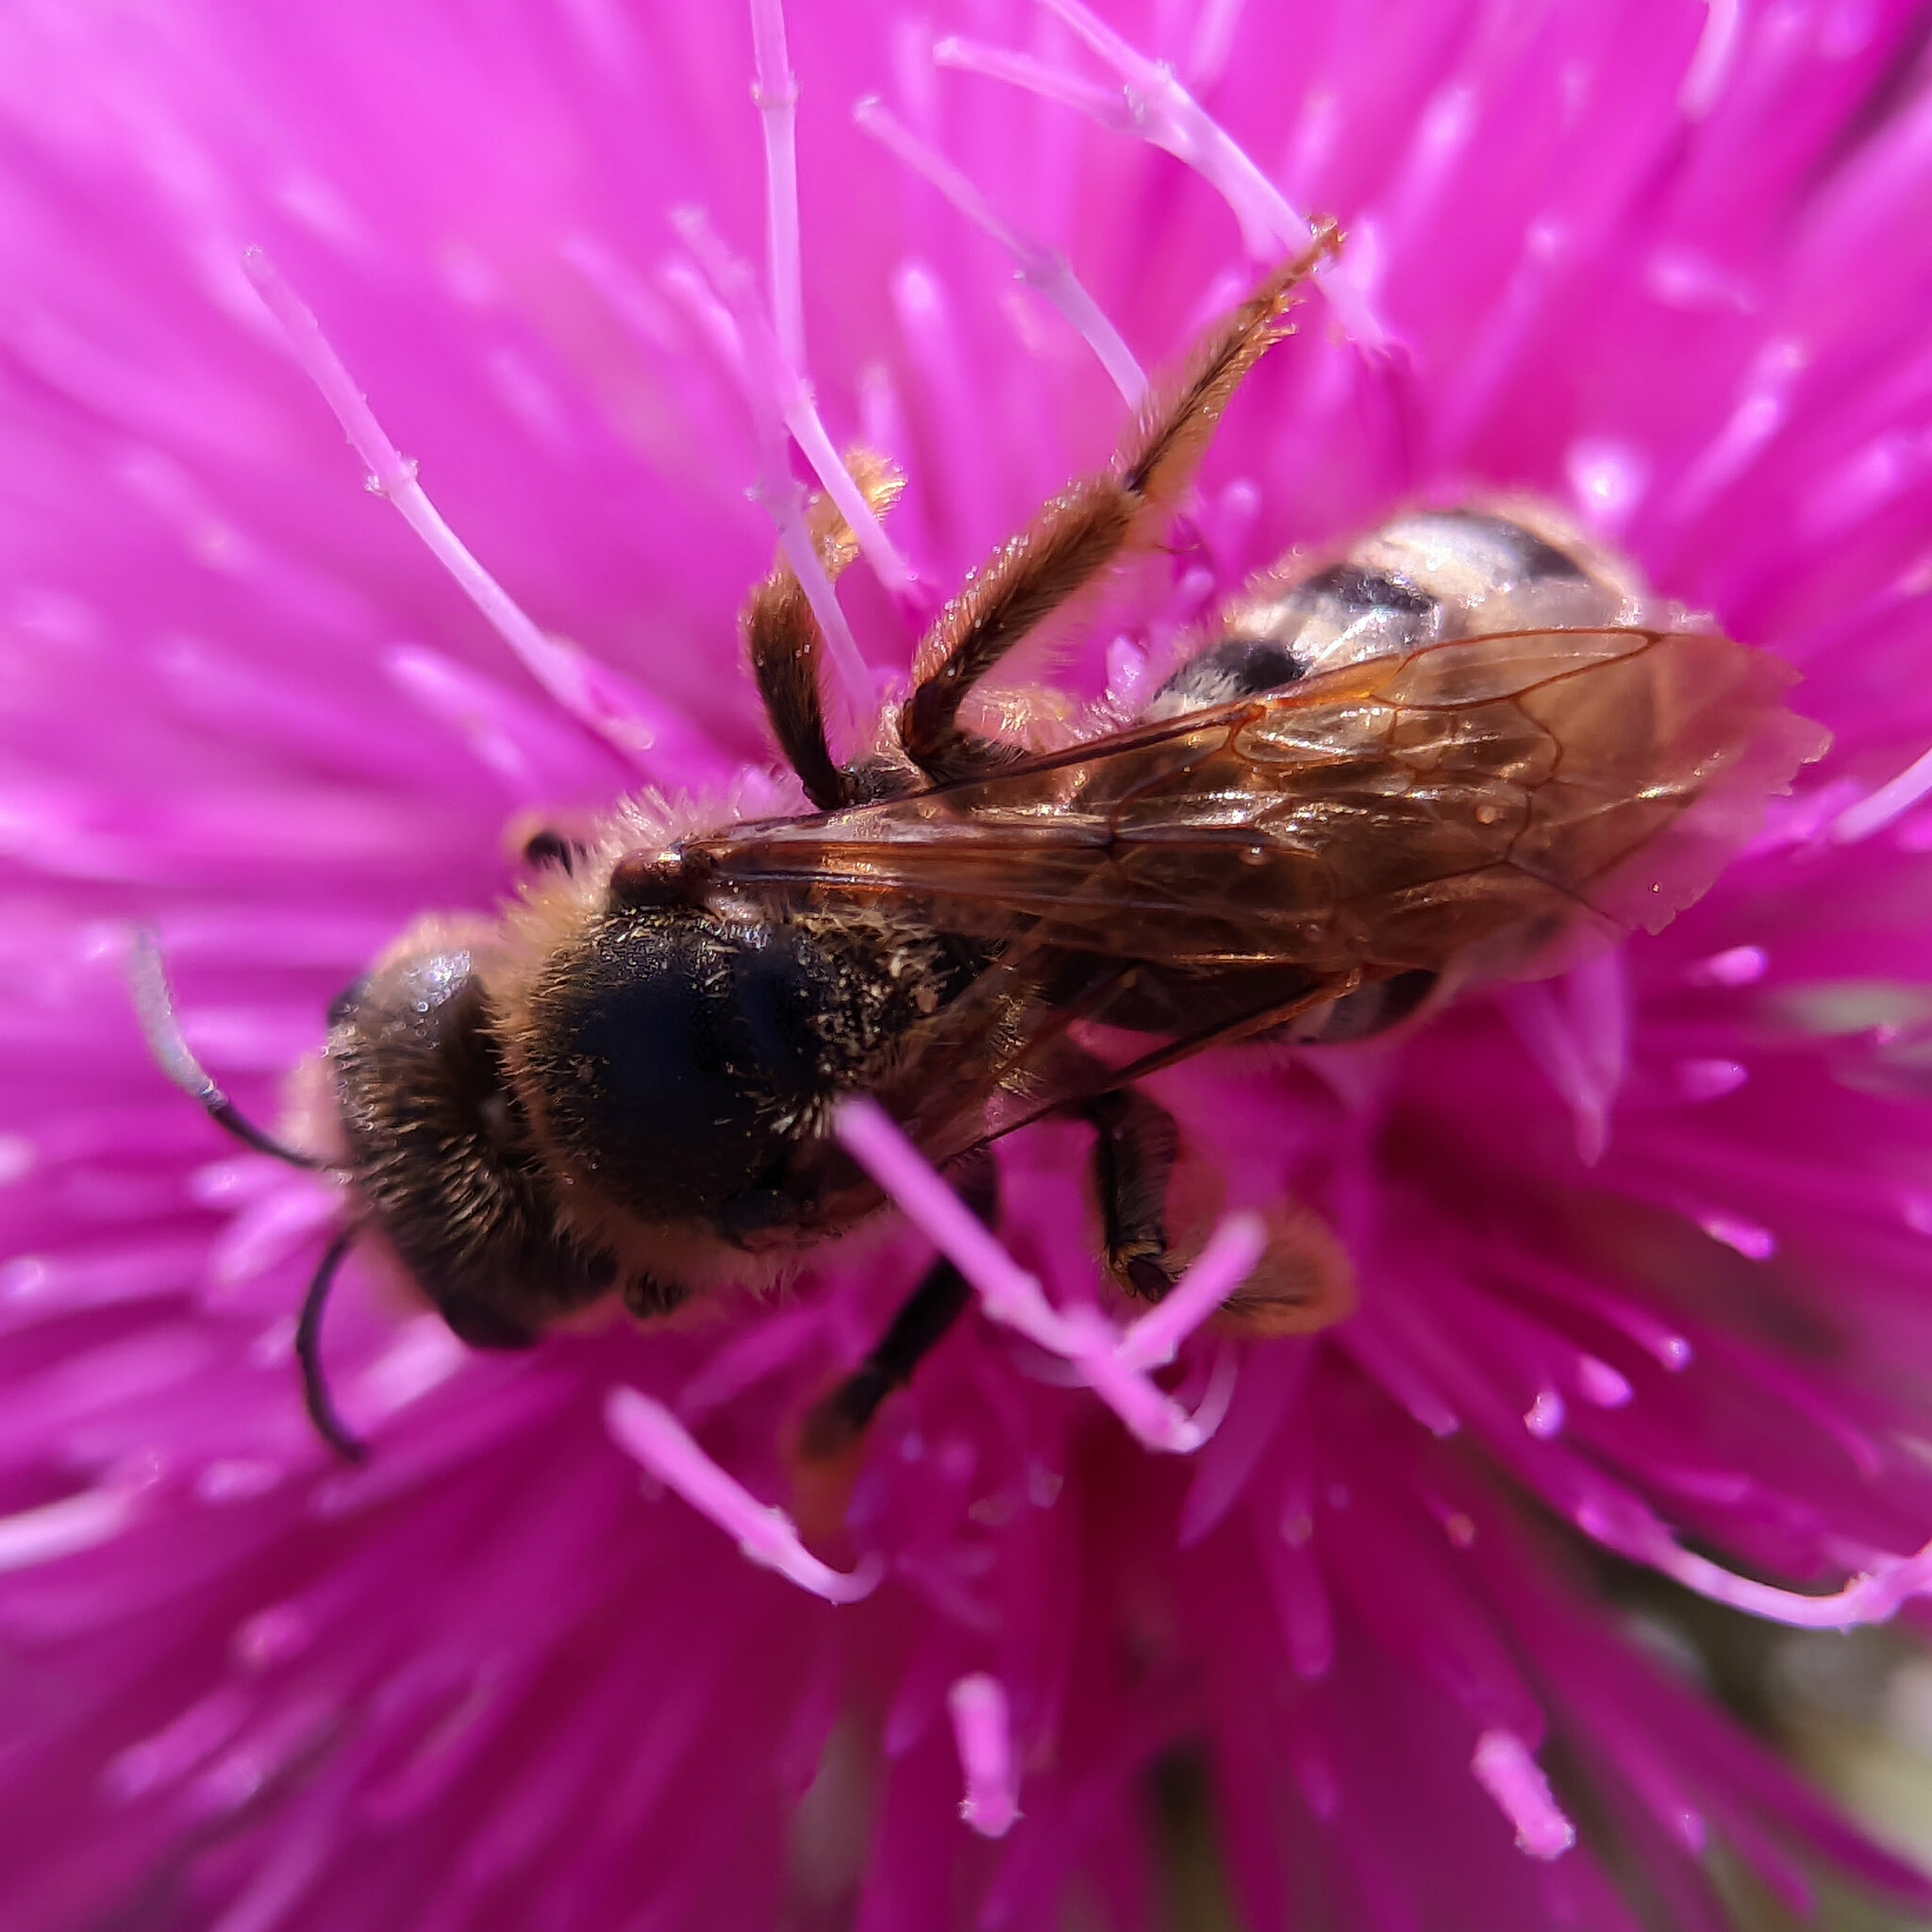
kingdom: Animalia
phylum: Arthropoda
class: Insecta
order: Hymenoptera
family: Halictidae
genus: Halictus
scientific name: Halictus scabiosae
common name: Great banded furrow bee
